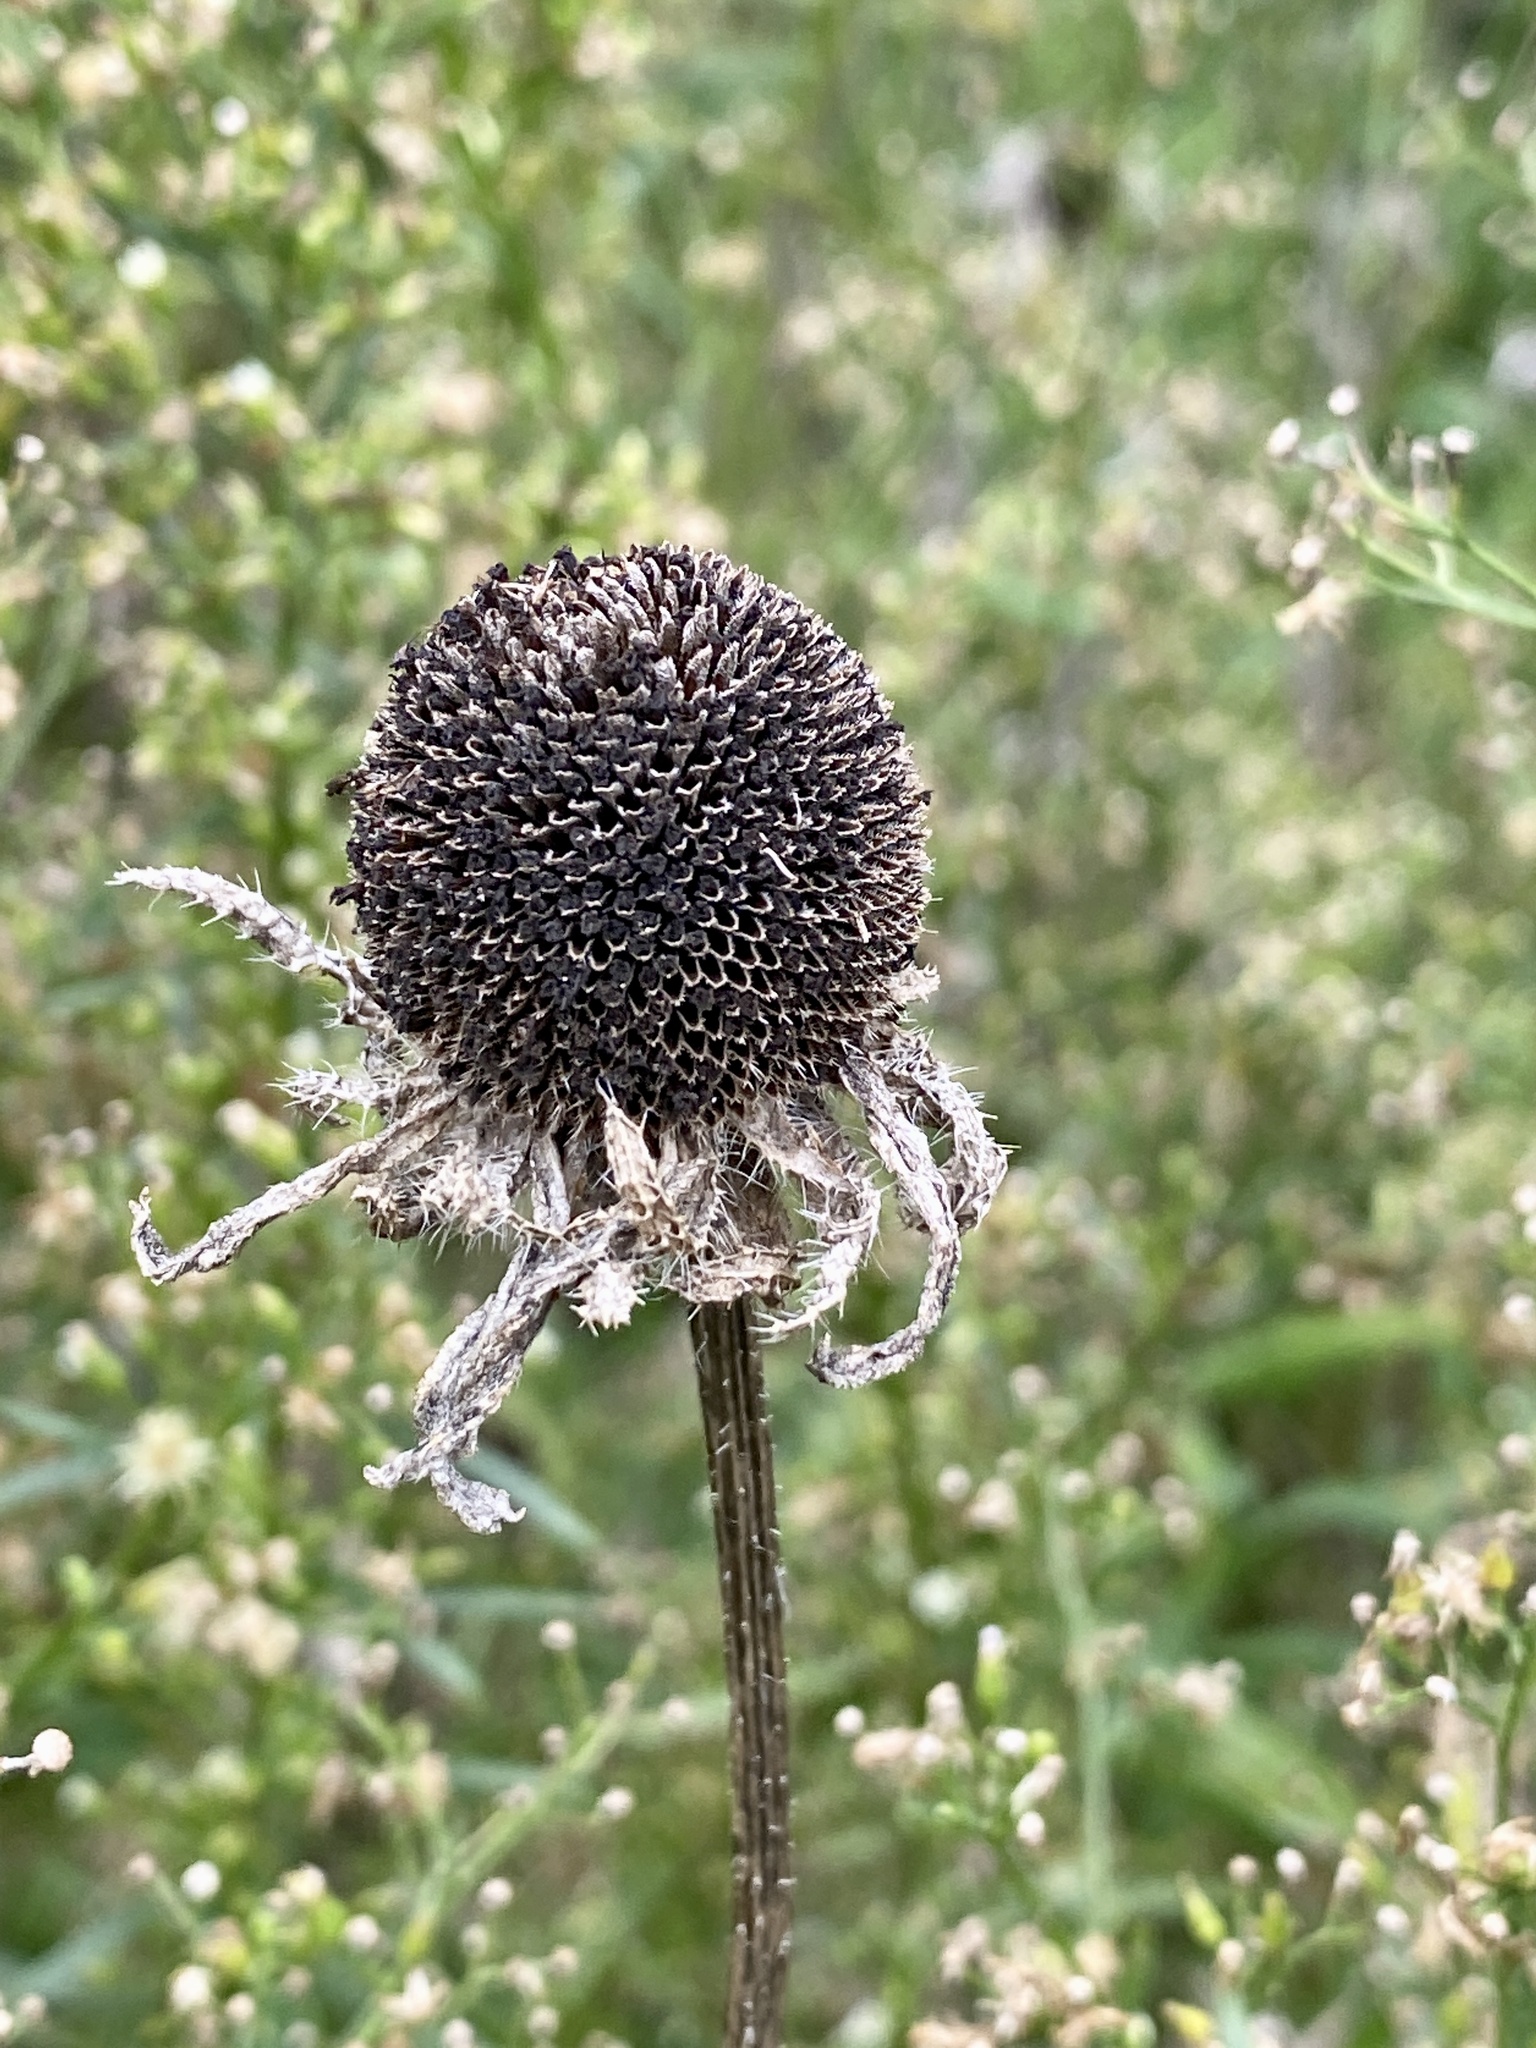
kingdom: Plantae
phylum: Tracheophyta
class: Magnoliopsida
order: Asterales
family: Asteraceae
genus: Rudbeckia
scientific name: Rudbeckia hirta
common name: Black-eyed-susan
